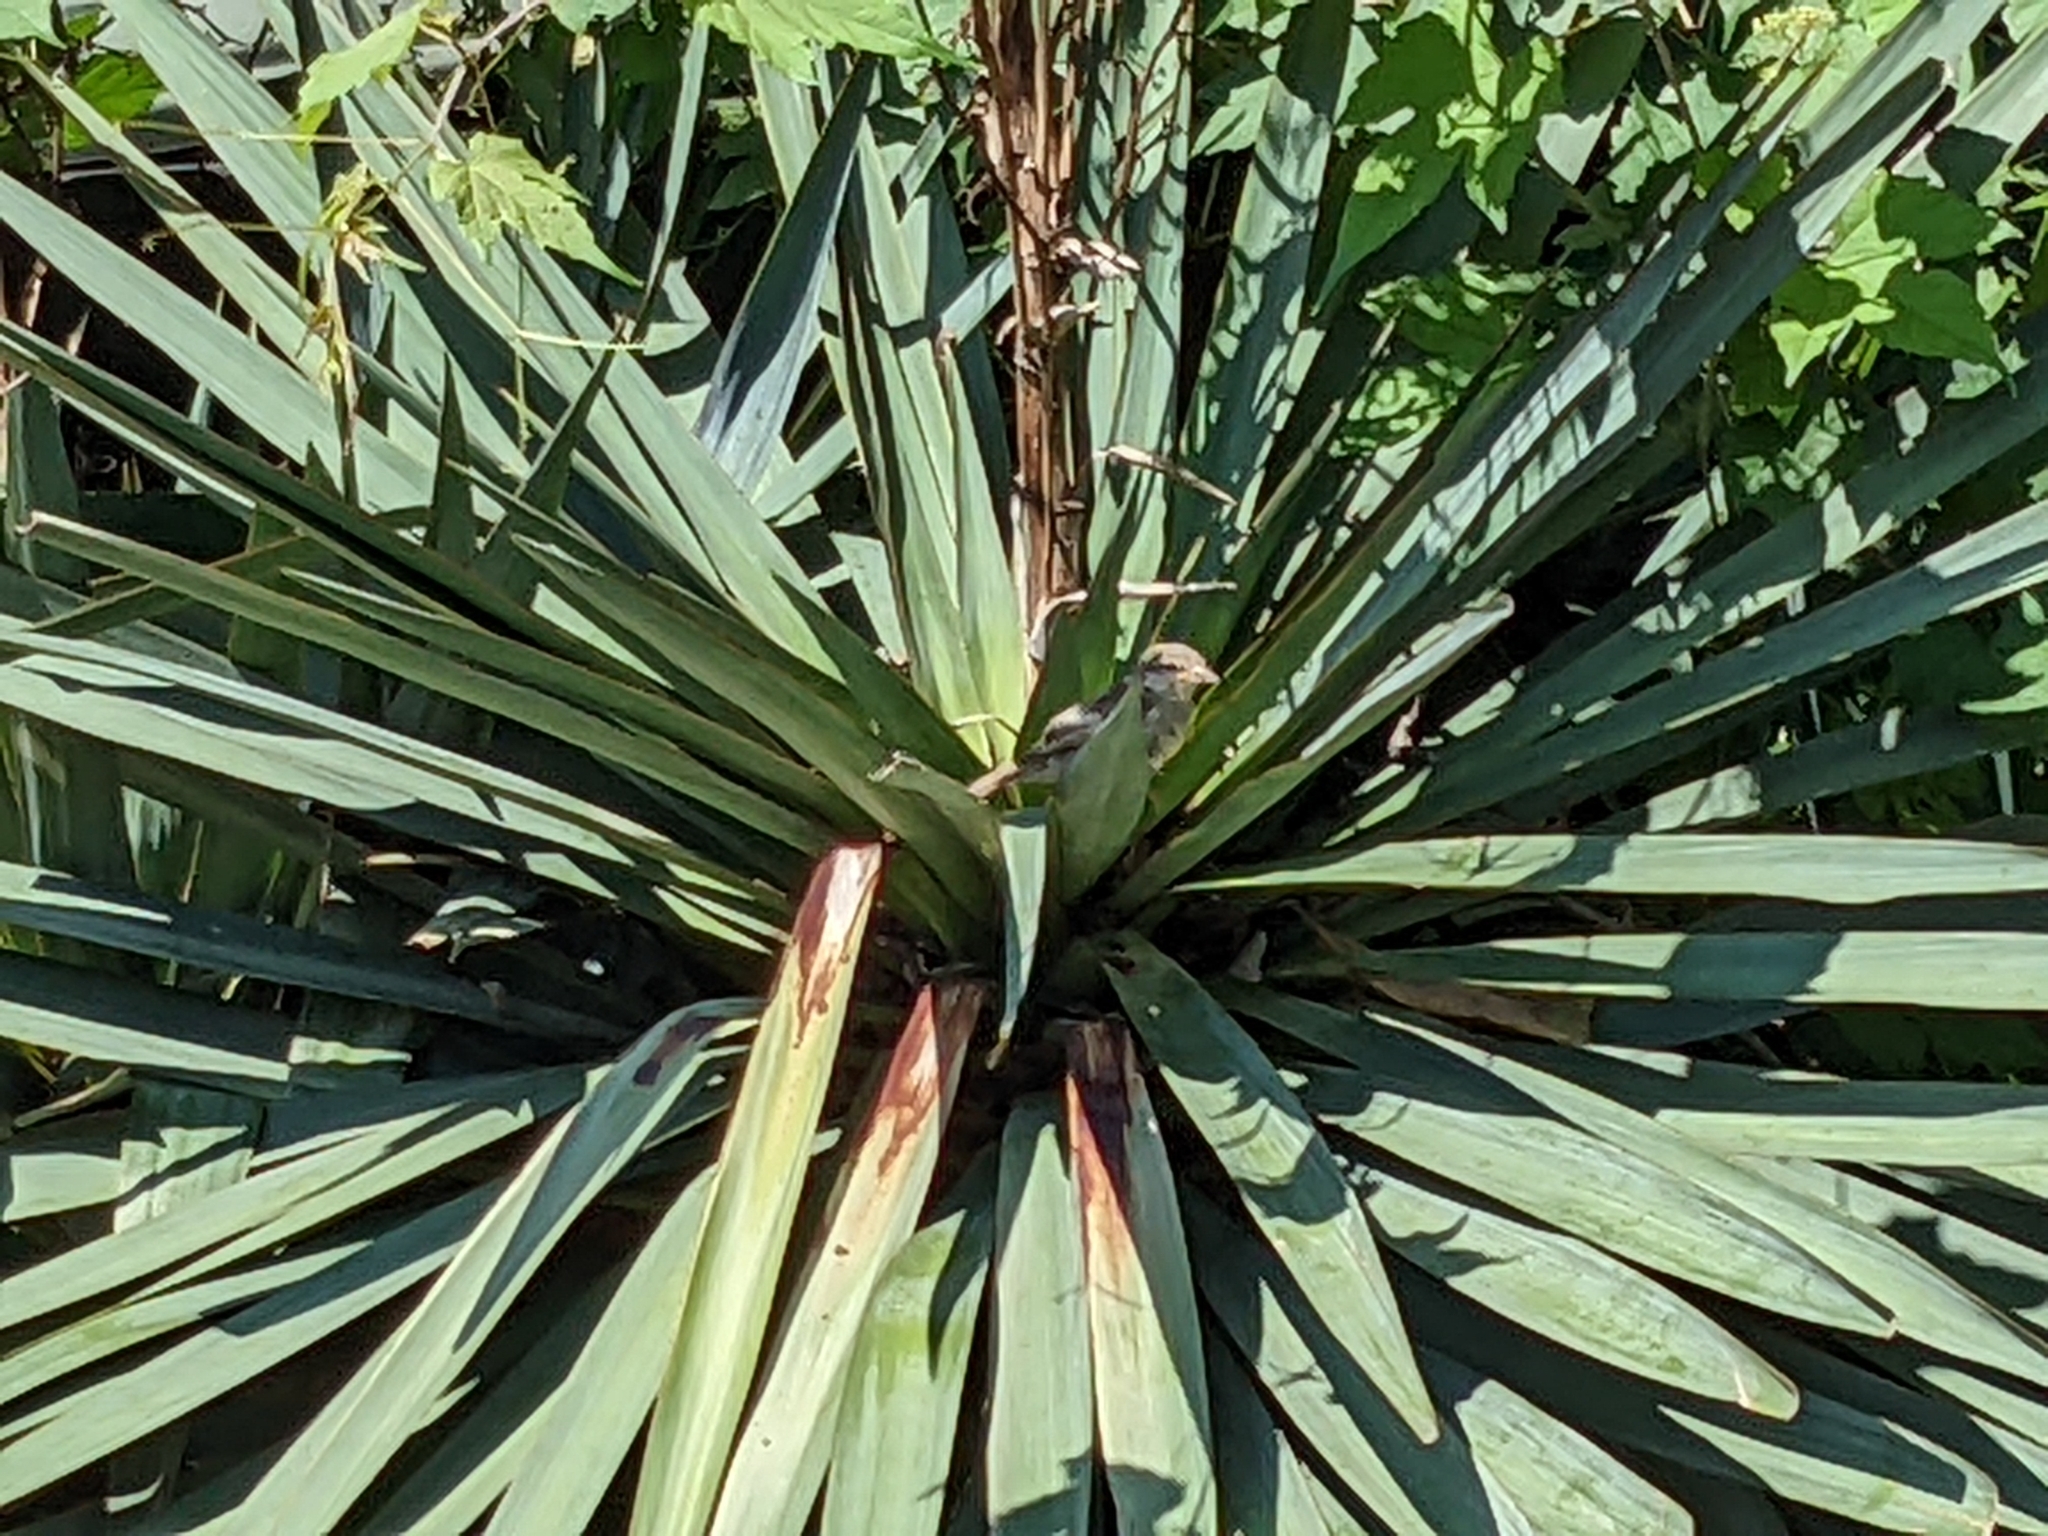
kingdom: Animalia
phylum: Chordata
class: Aves
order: Passeriformes
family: Passeridae
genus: Passer
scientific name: Passer domesticus
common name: House sparrow
